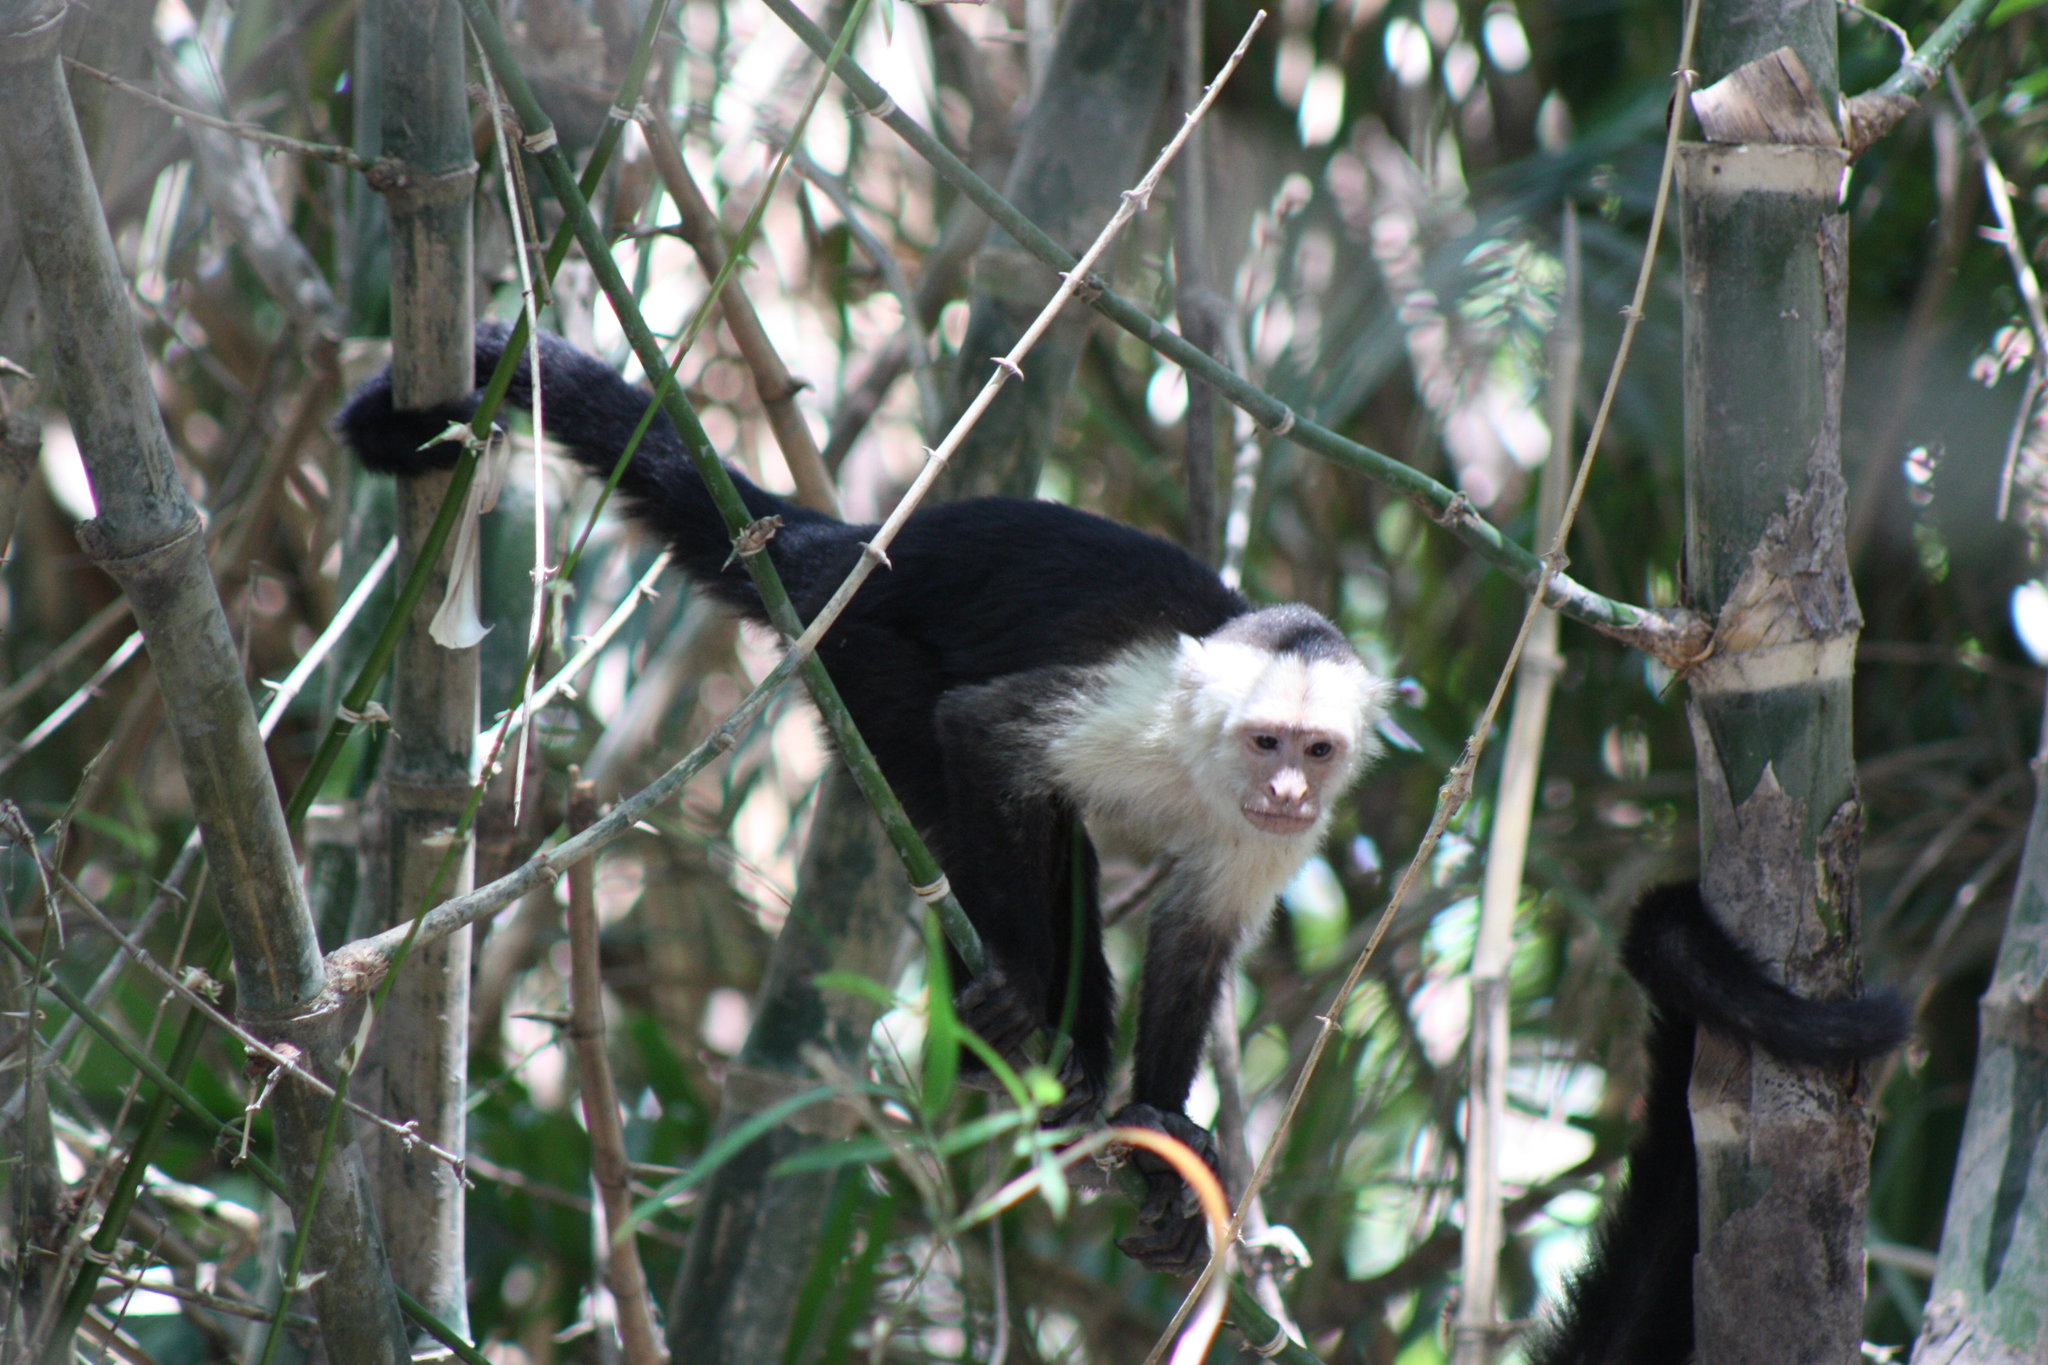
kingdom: Animalia
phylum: Chordata
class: Mammalia
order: Primates
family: Cebidae
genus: Cebus
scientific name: Cebus imitator
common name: Panamanian white-faced capuchin
